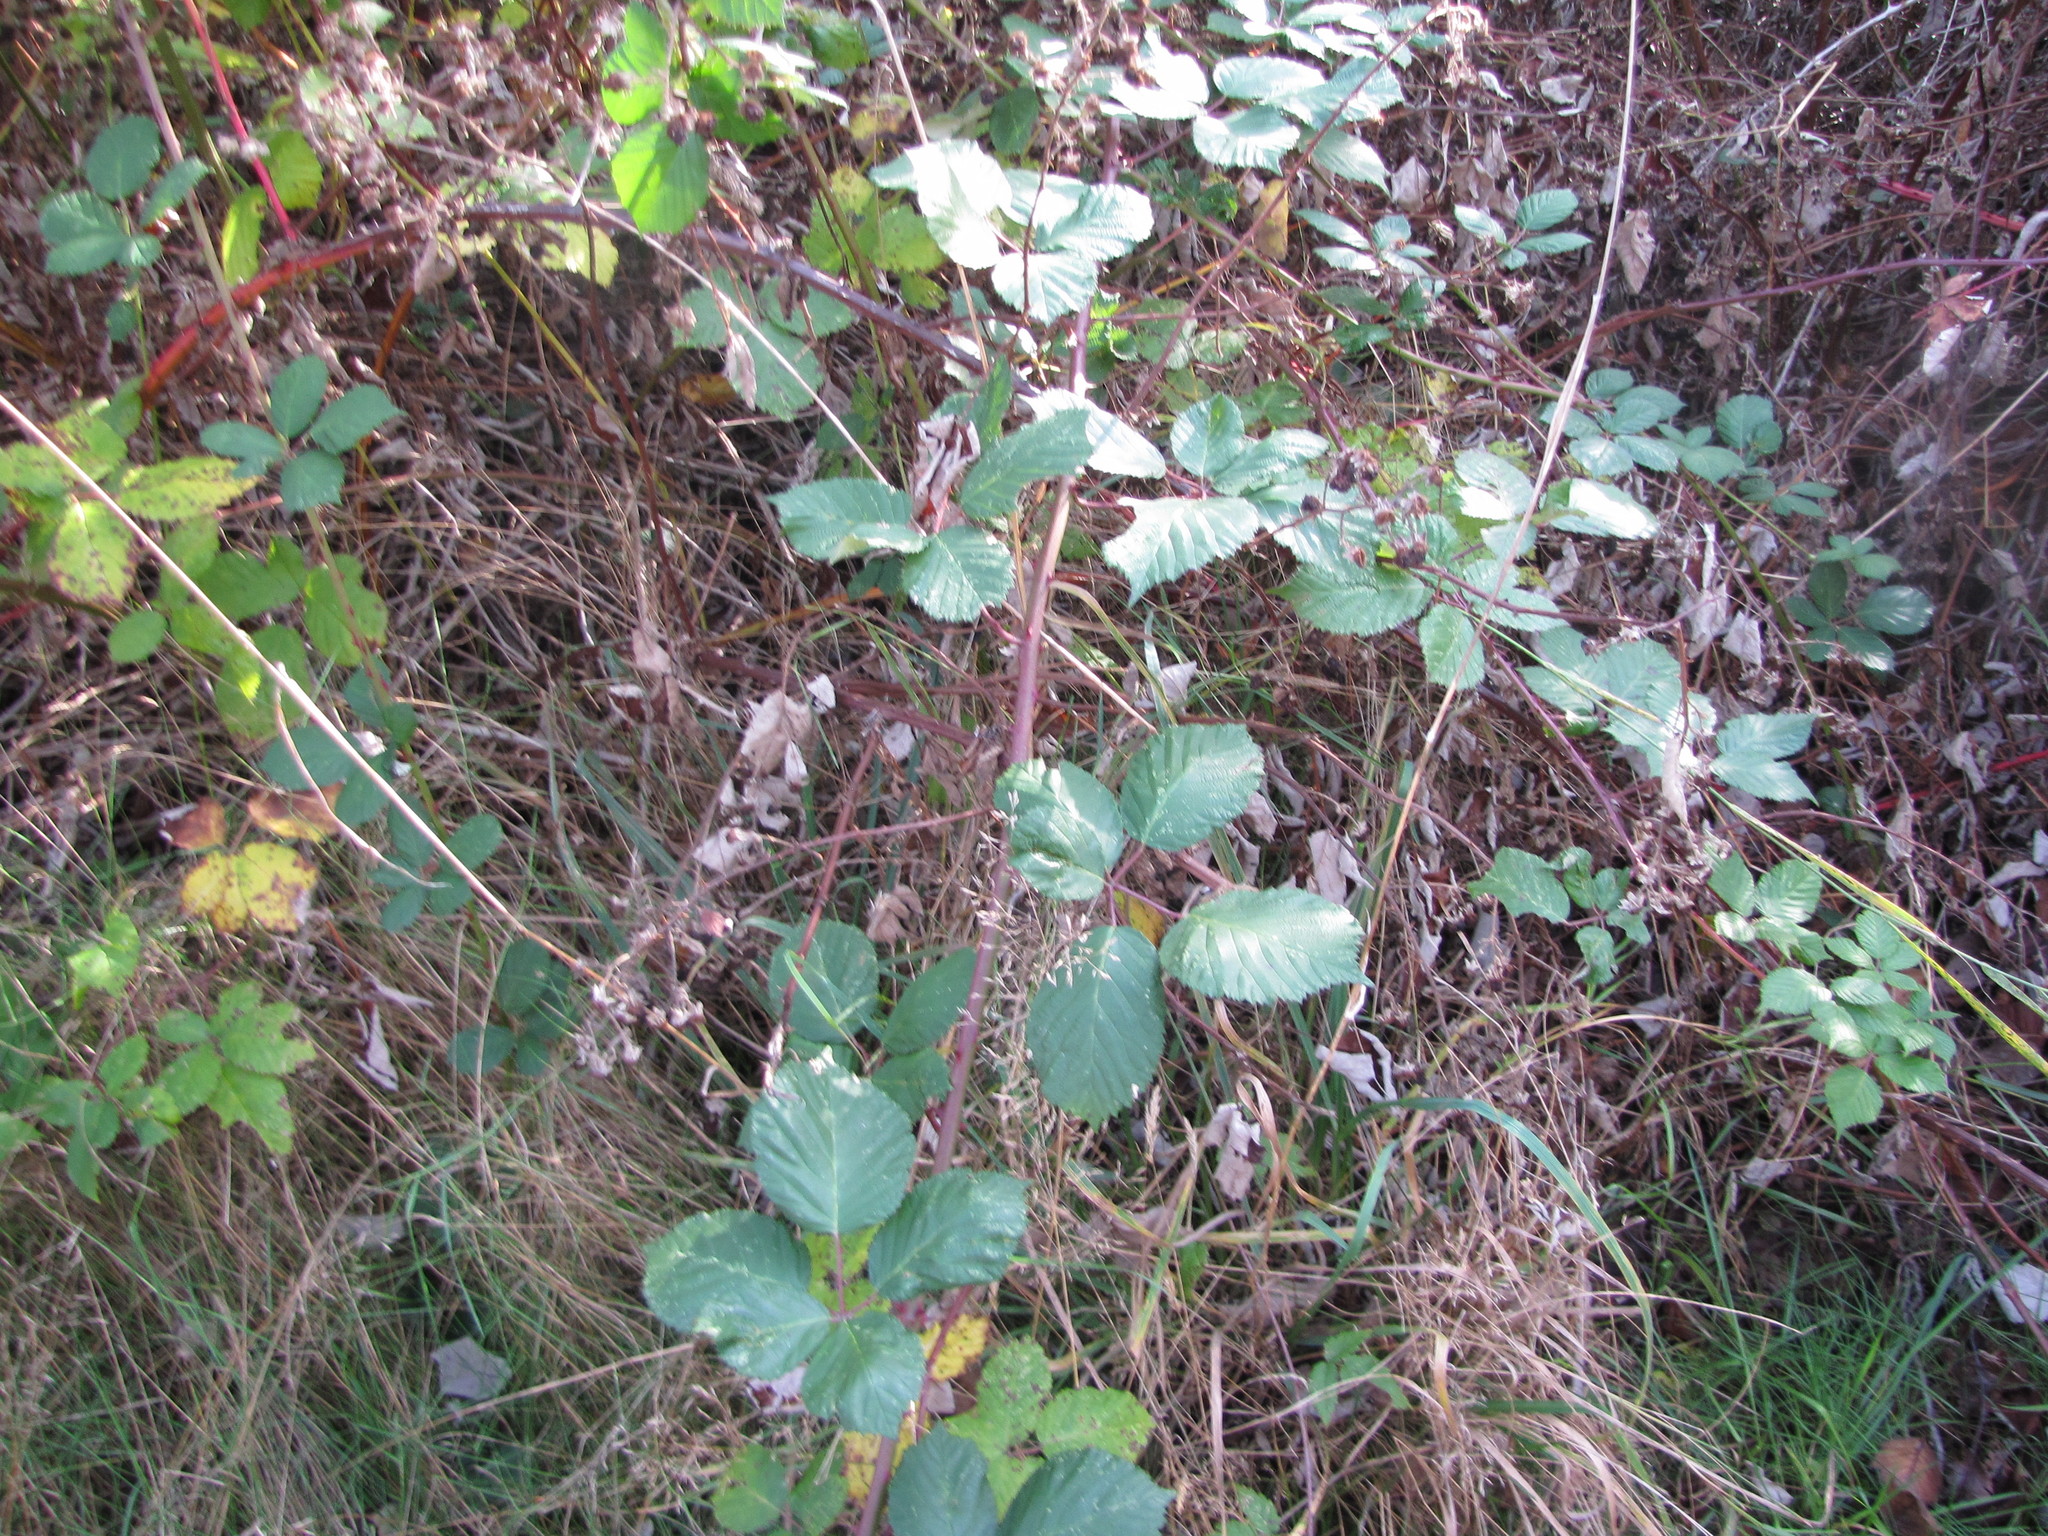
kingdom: Plantae
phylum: Tracheophyta
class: Magnoliopsida
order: Rosales
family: Rosaceae
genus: Rubus
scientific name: Rubus armeniacus
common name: Himalayan blackberry
